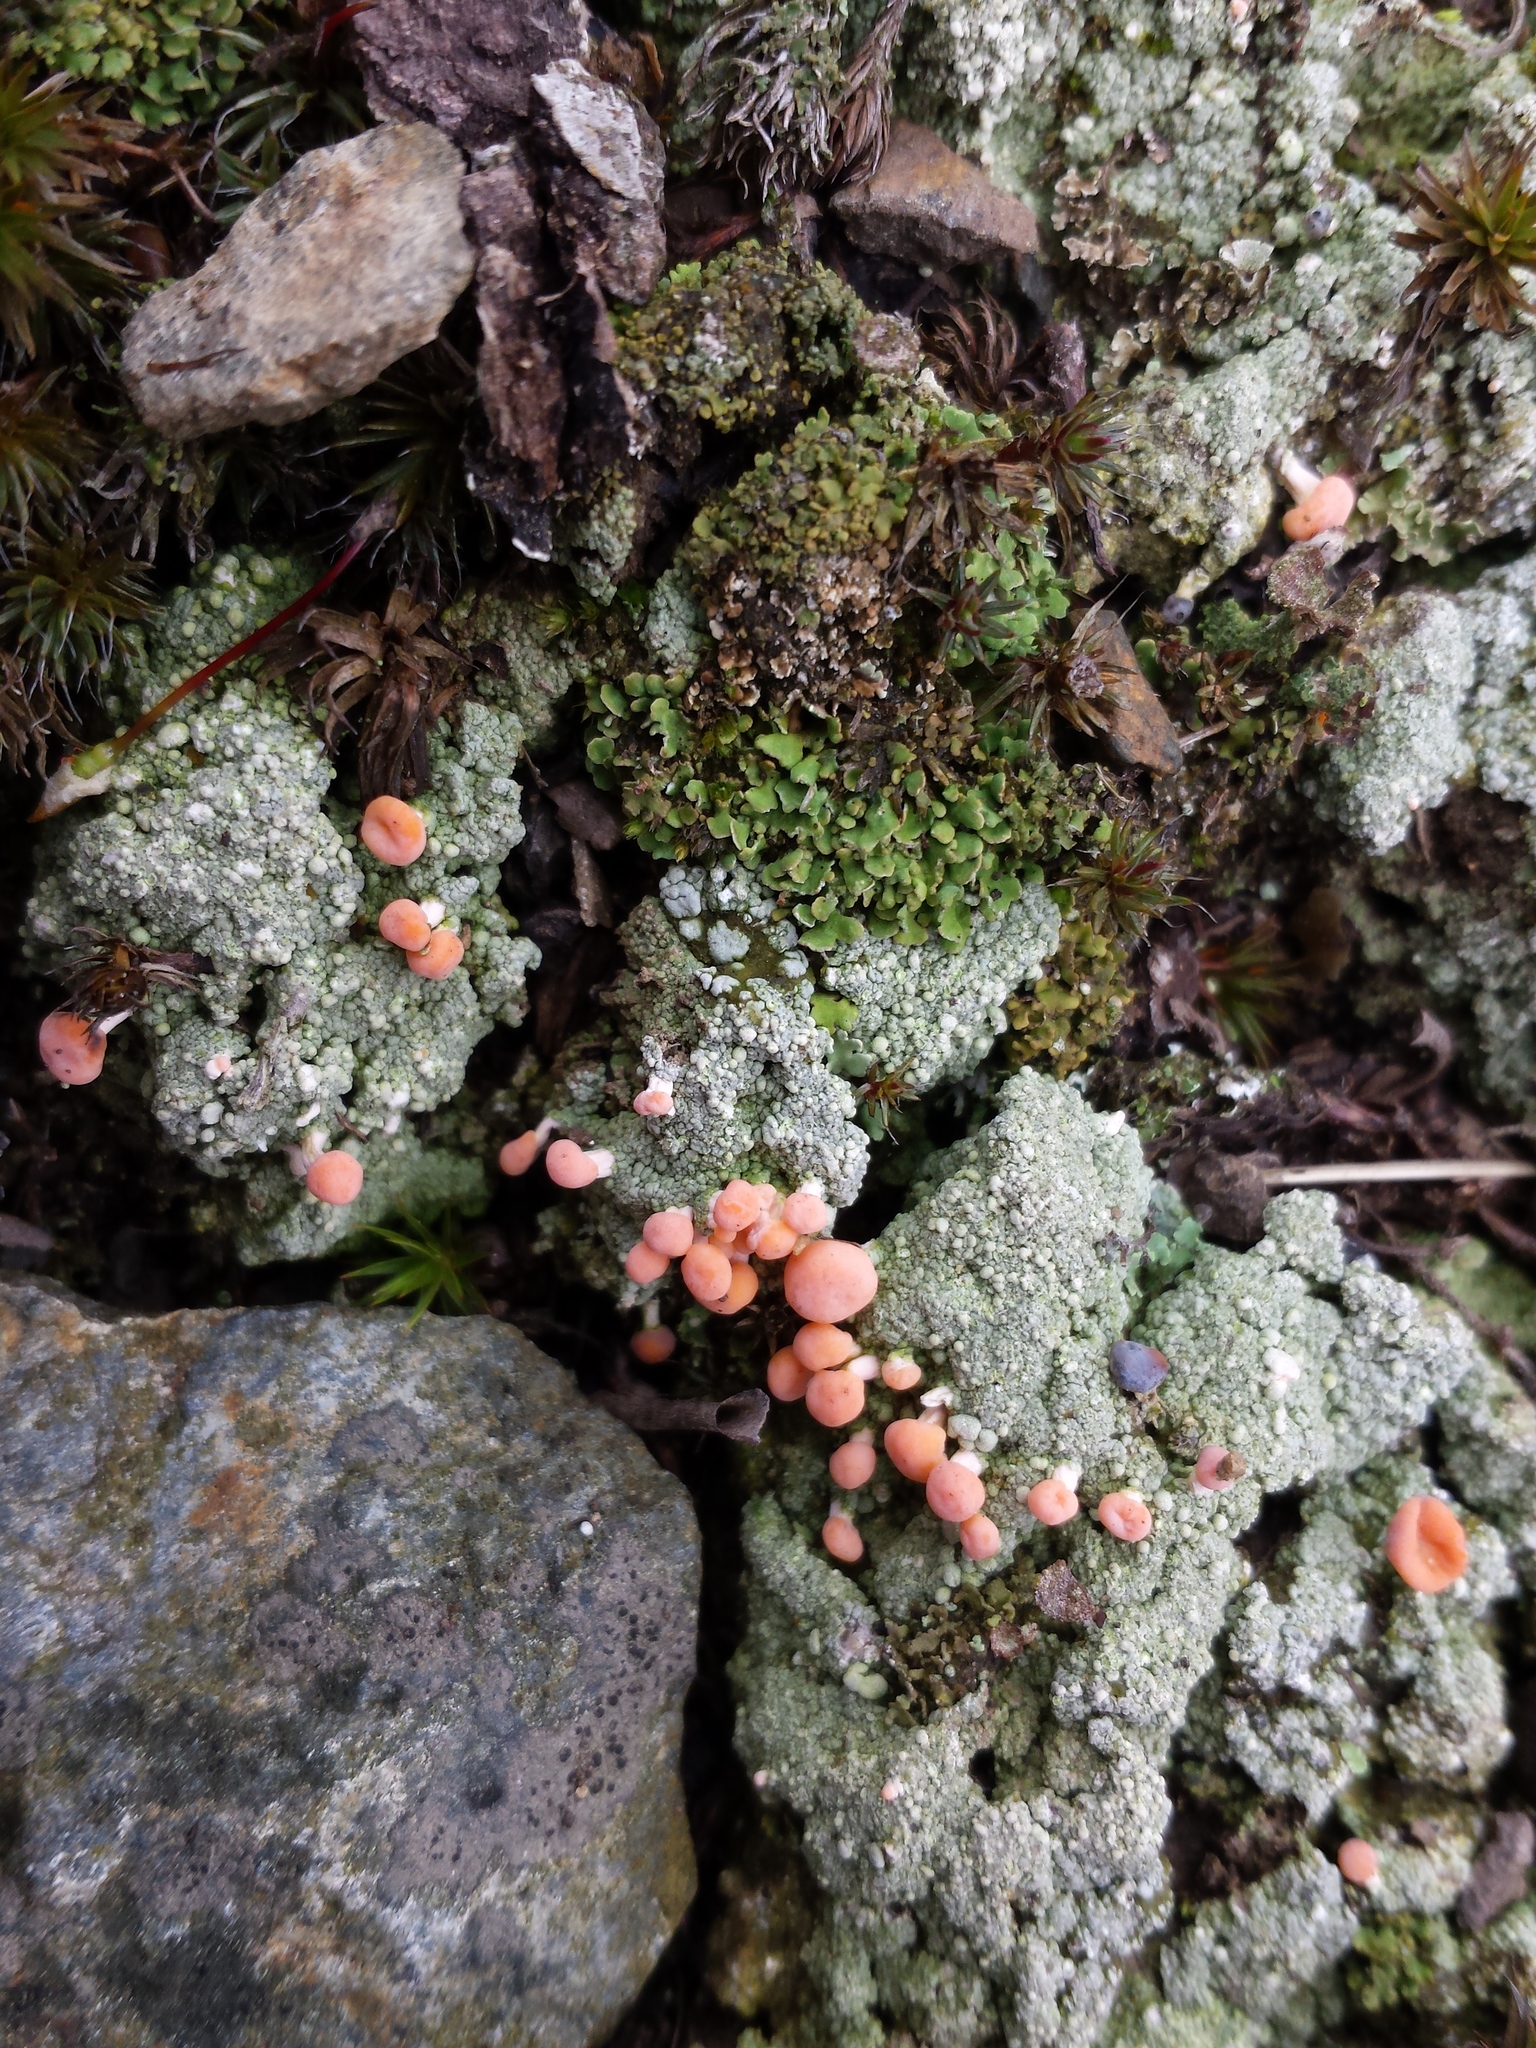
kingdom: Fungi
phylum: Ascomycota
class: Lecanoromycetes
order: Pertusariales
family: Icmadophilaceae
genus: Dibaeis
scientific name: Dibaeis baeomyces
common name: Pink earth lichen
